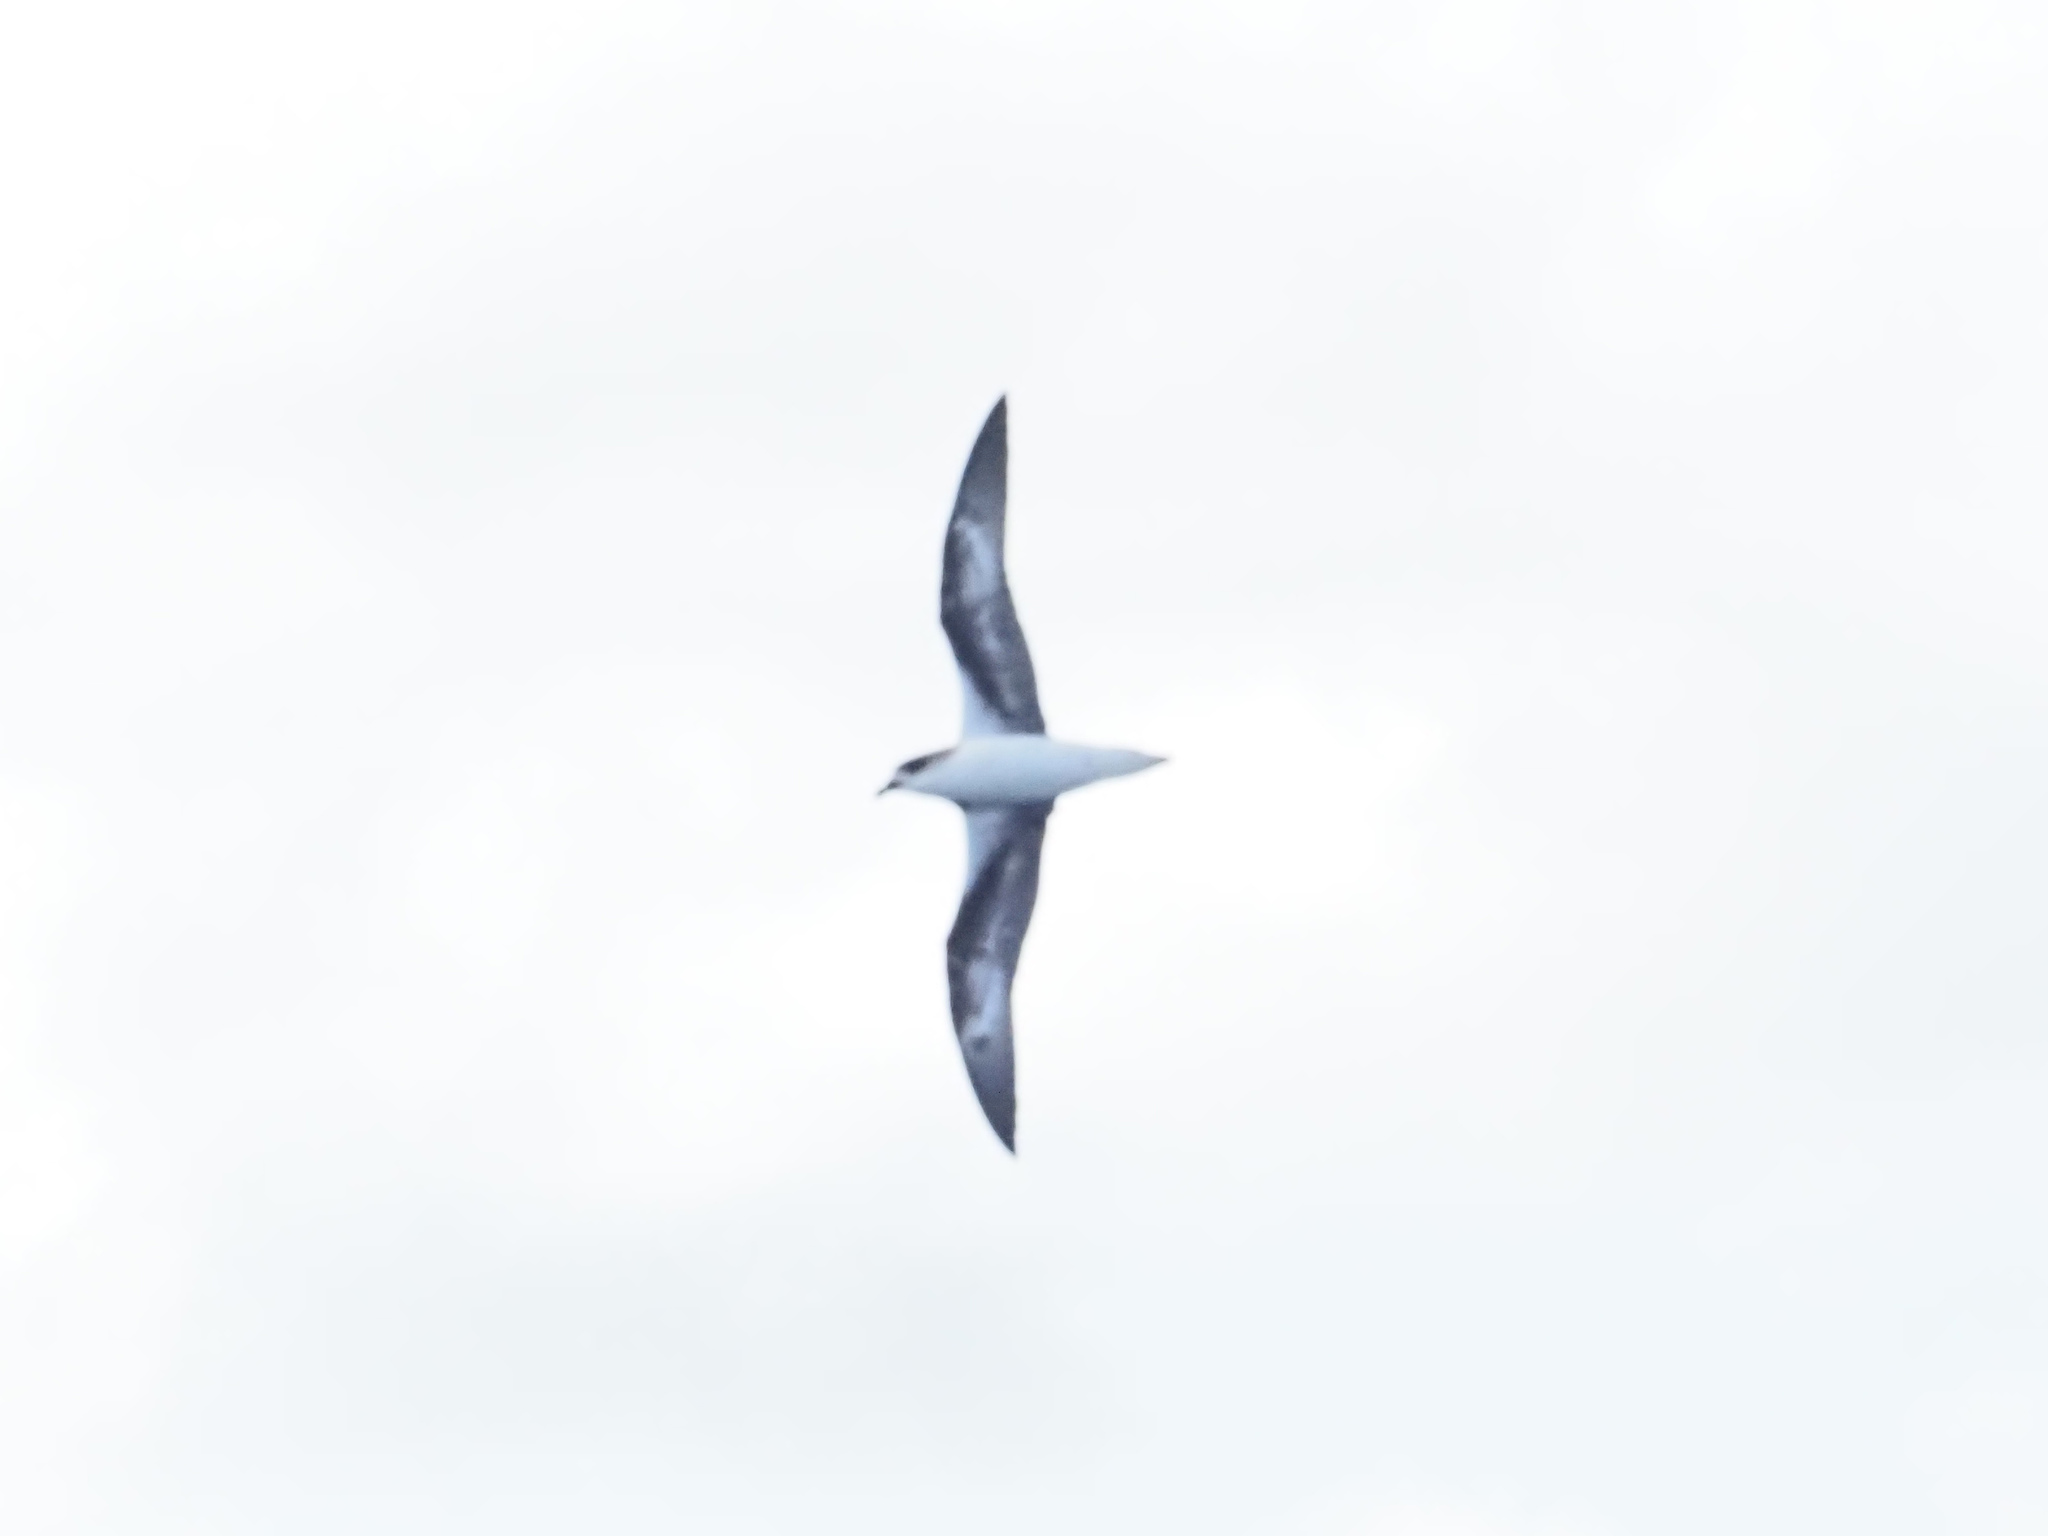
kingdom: Animalia
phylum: Chordata
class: Aves
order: Procellariiformes
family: Procellariidae
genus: Pterodroma
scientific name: Pterodroma feae
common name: Fea's petrel
